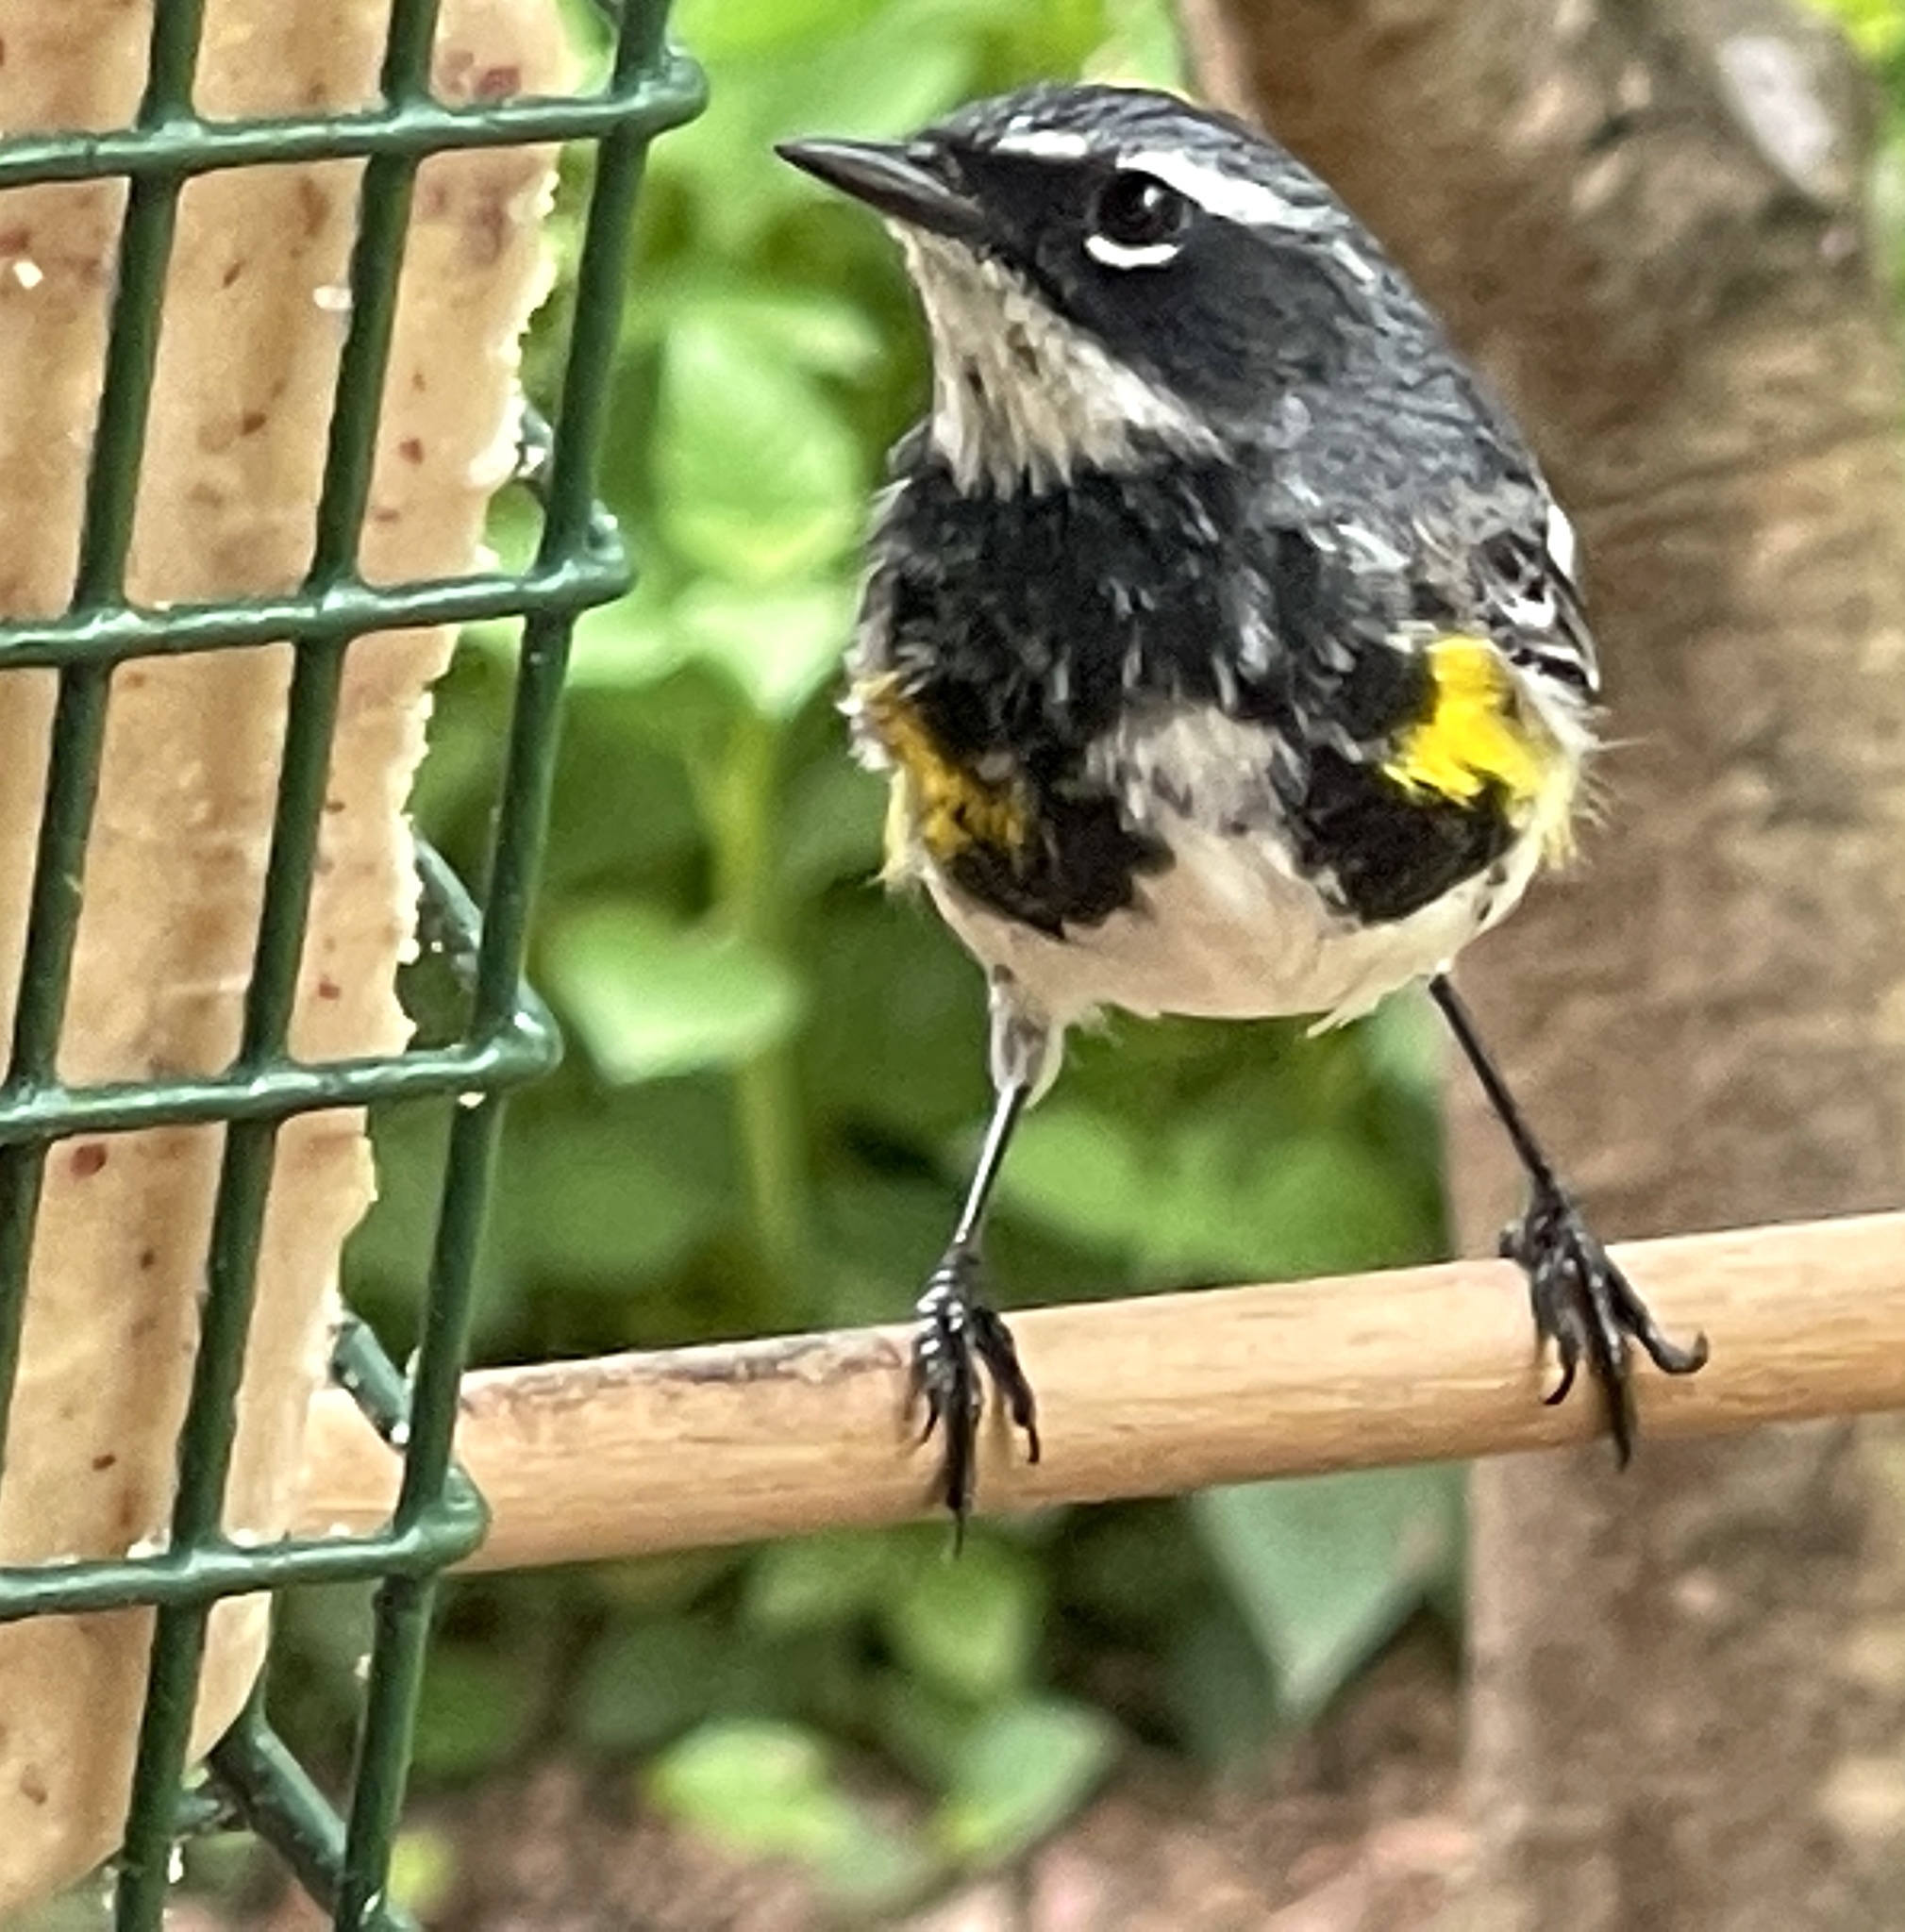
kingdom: Animalia
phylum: Chordata
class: Aves
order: Passeriformes
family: Parulidae
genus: Setophaga
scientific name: Setophaga coronata
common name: Myrtle warbler
